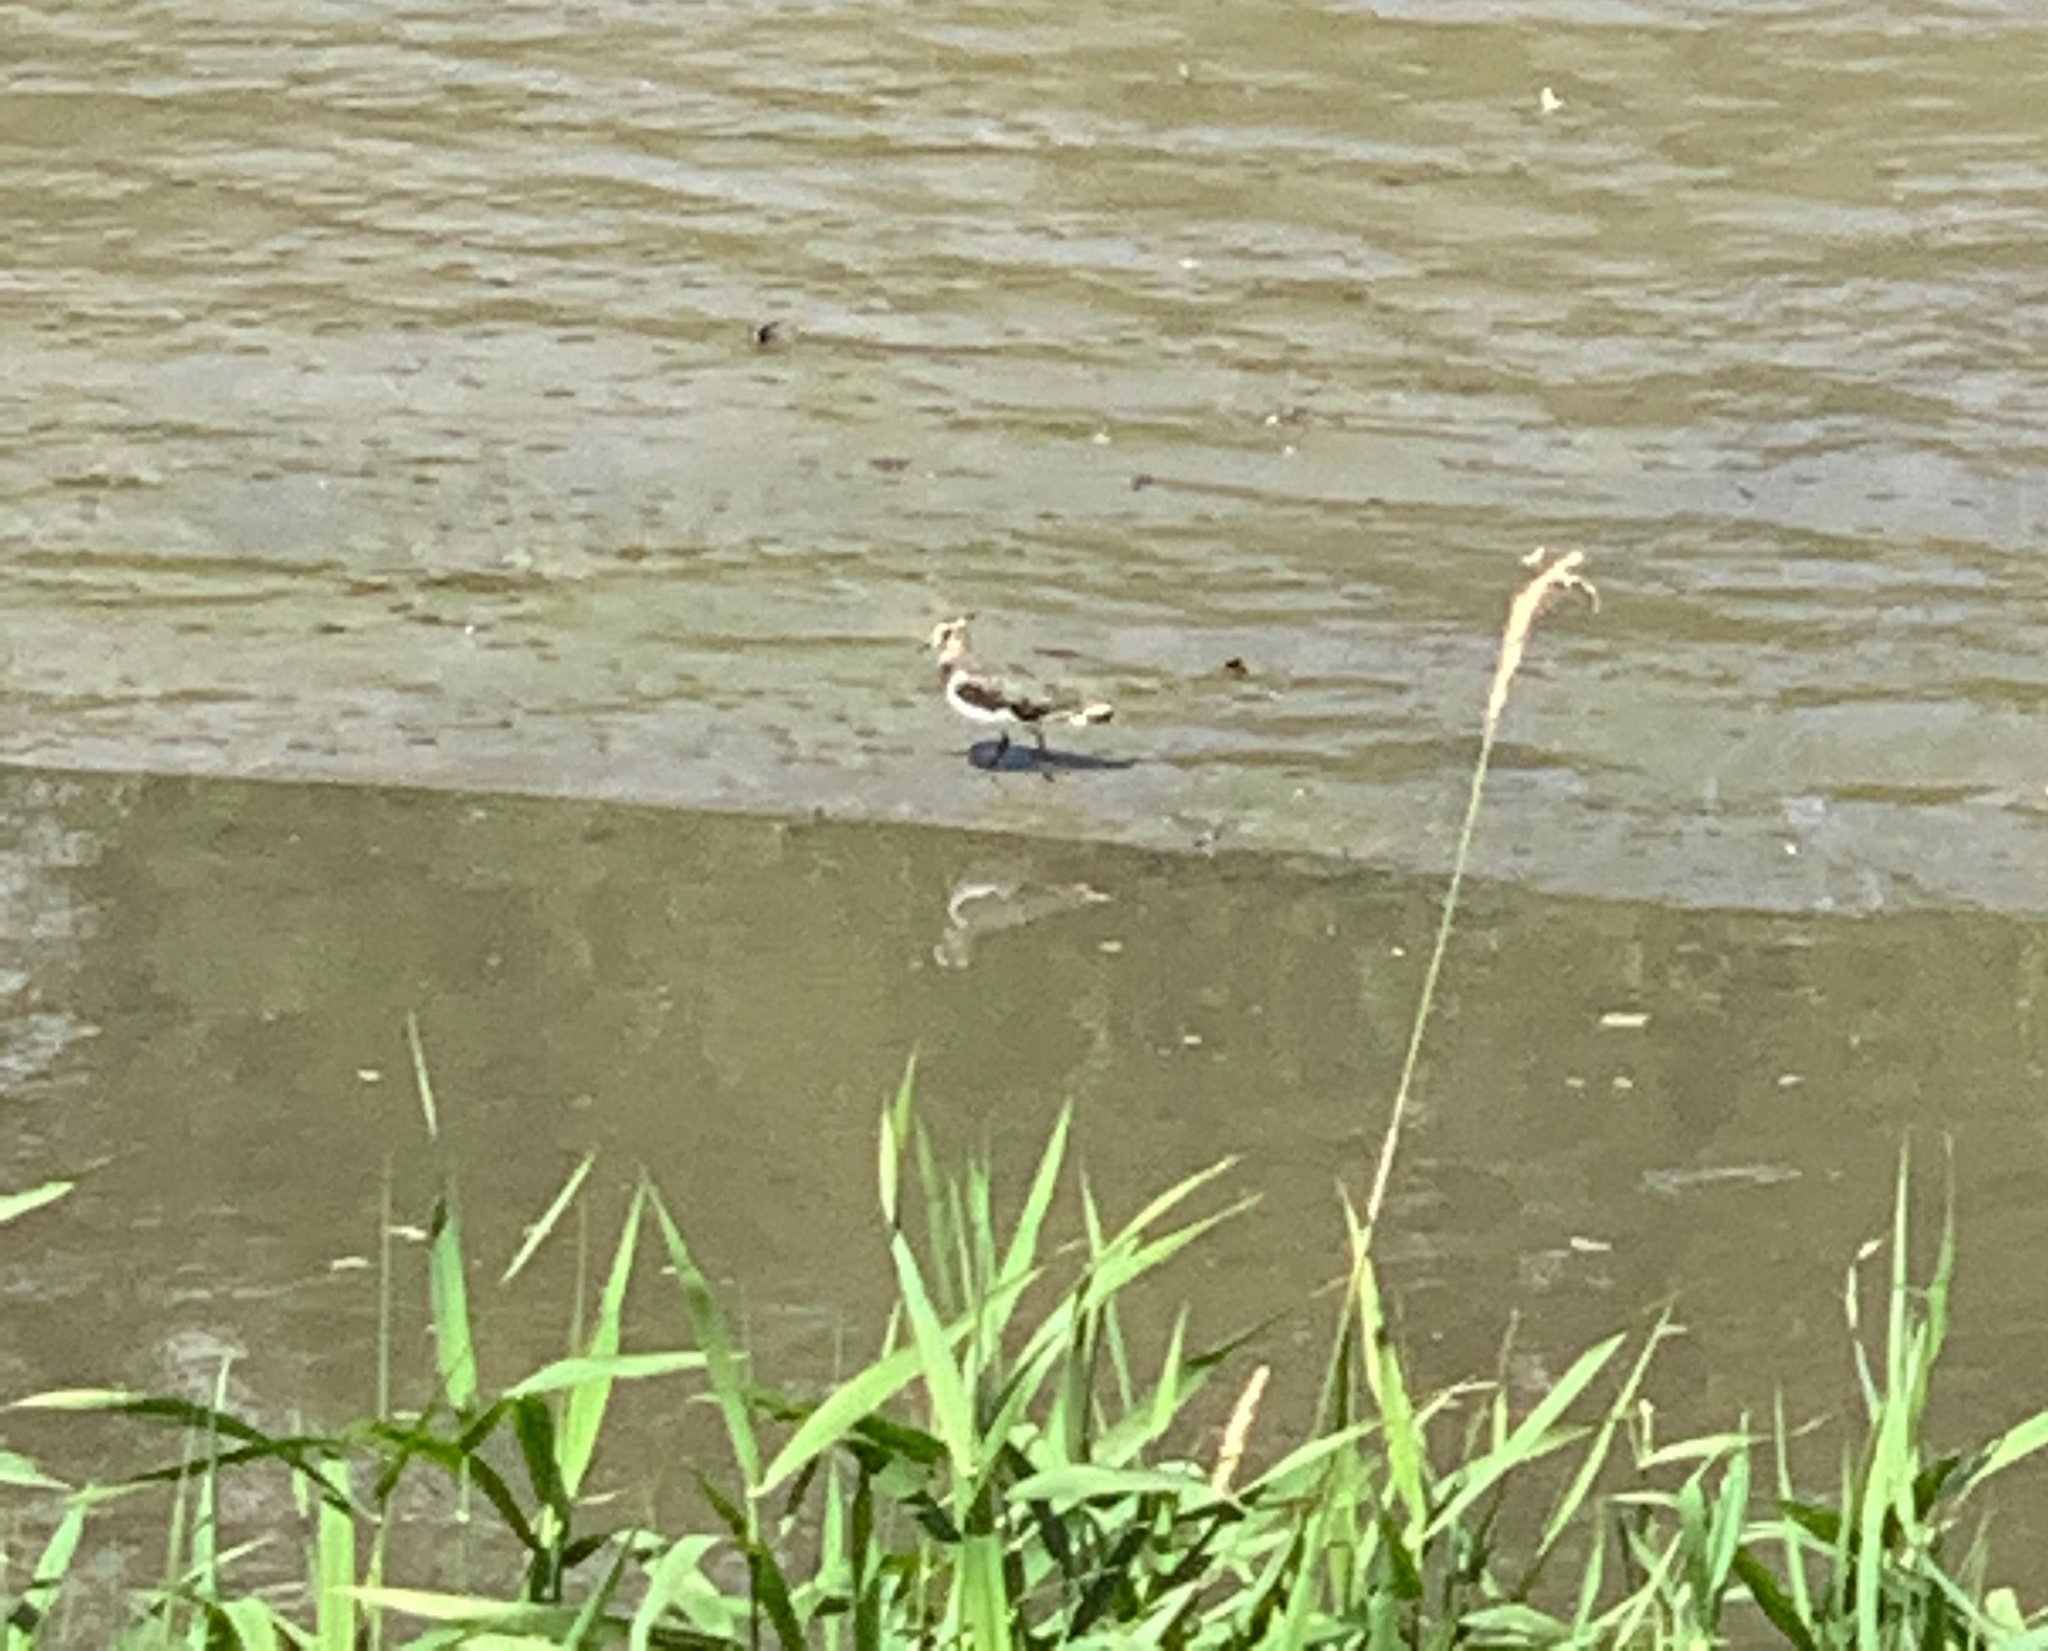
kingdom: Animalia
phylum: Chordata
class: Aves
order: Charadriiformes
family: Charadriidae
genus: Vanellus
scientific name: Vanellus vanellus
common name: Northern lapwing
